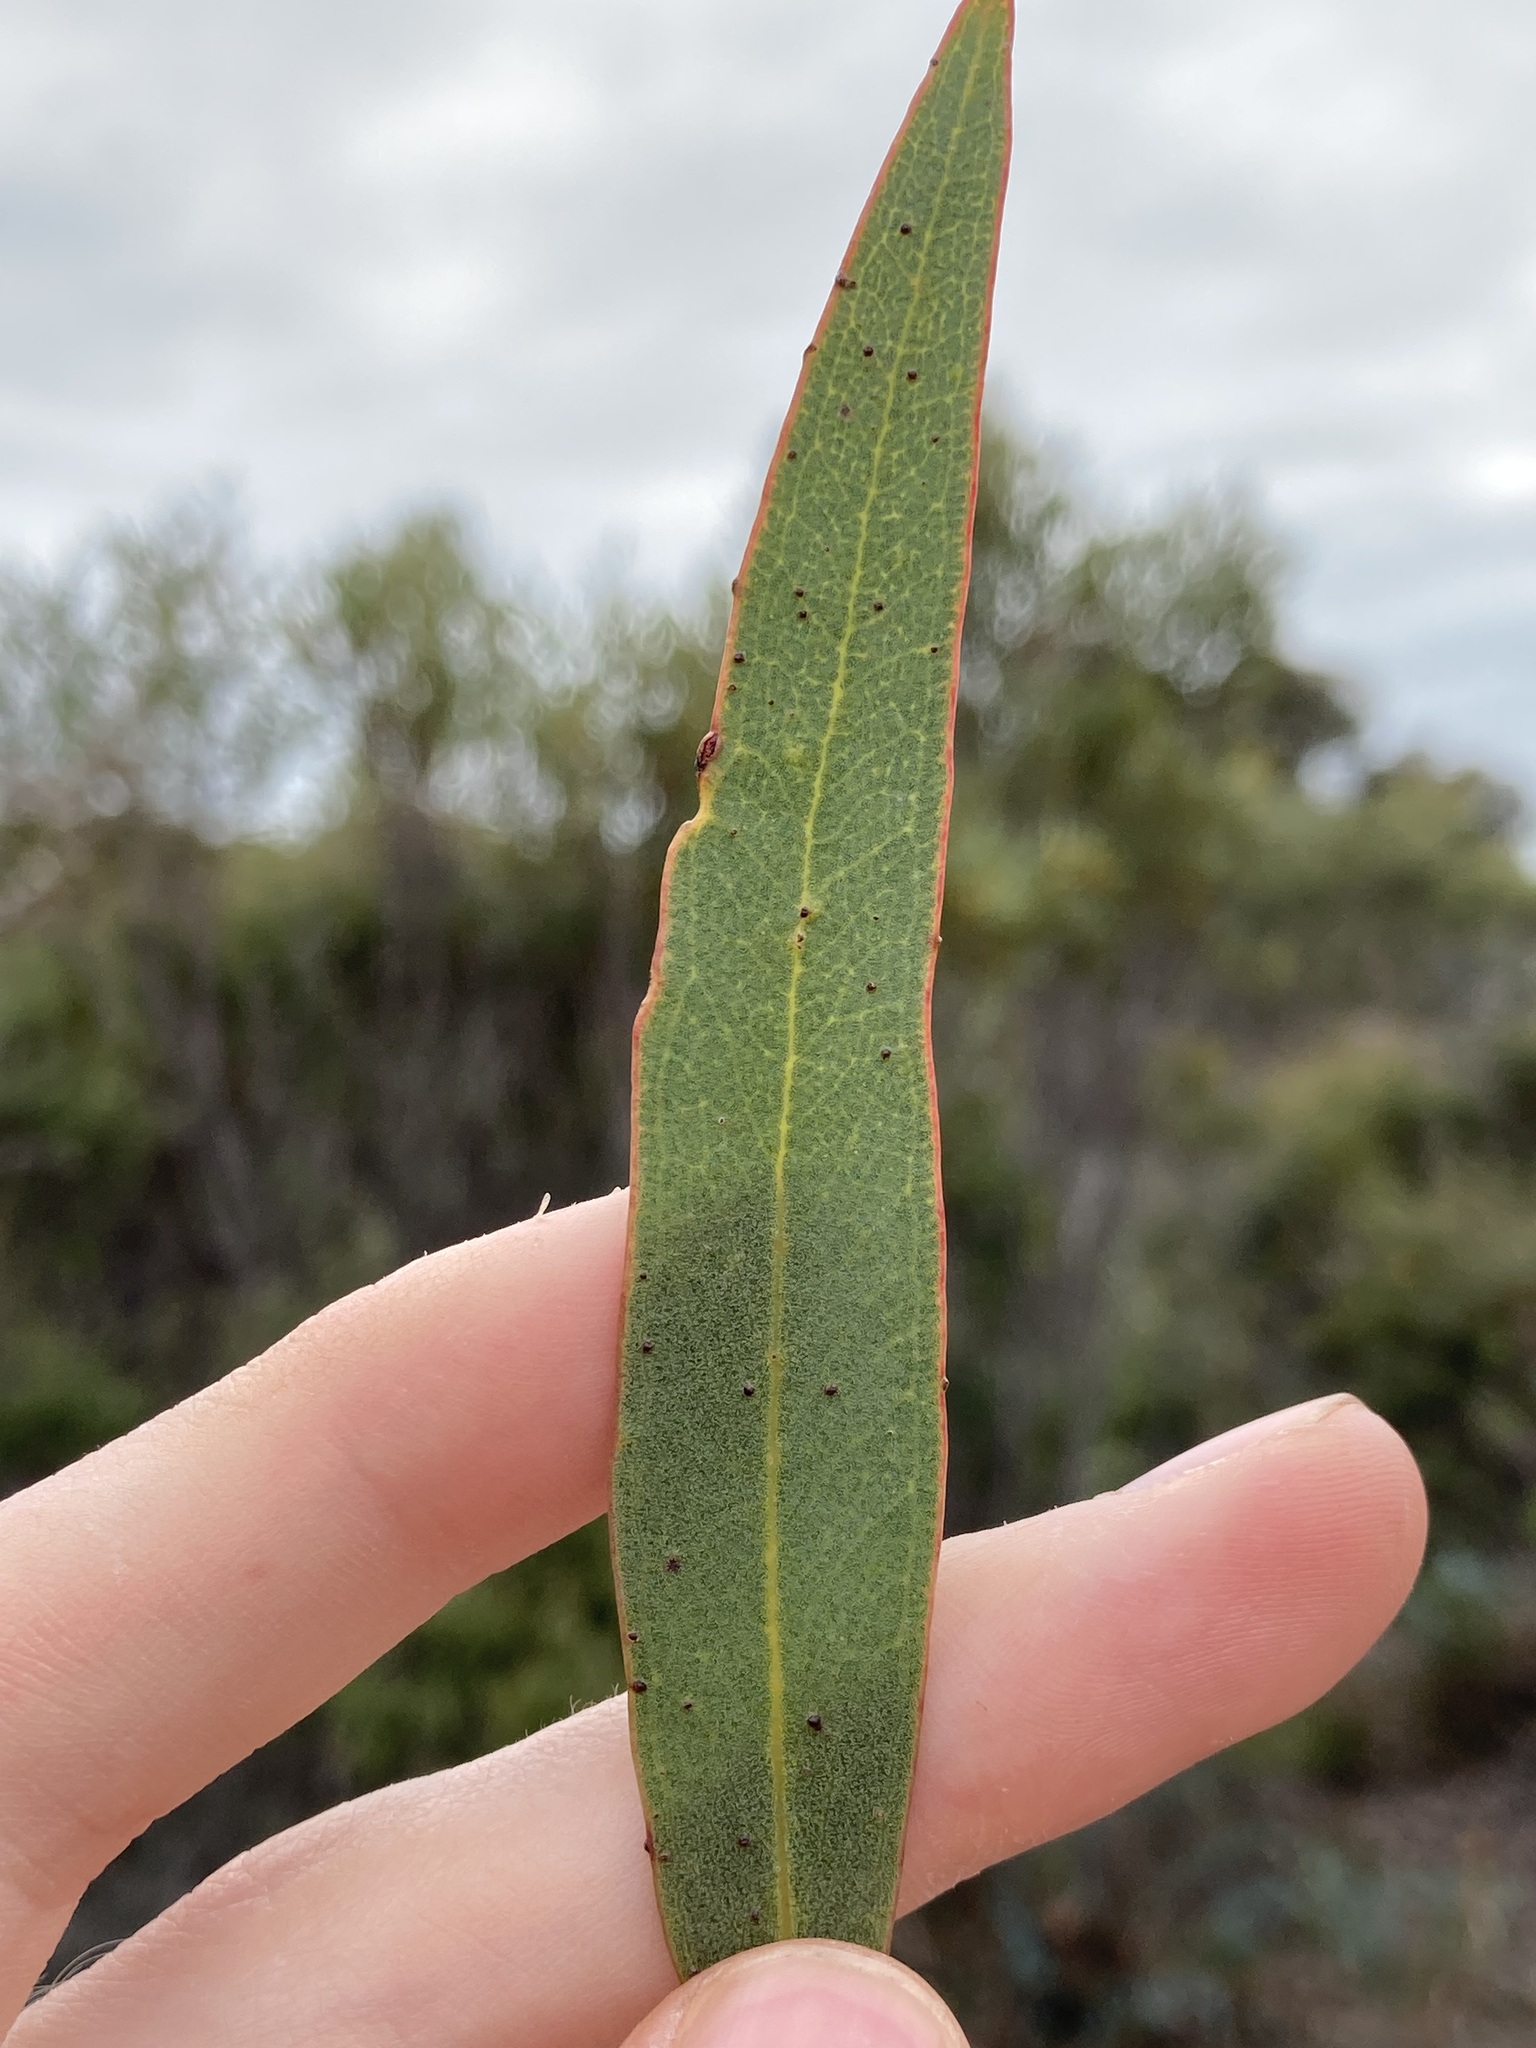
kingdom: Plantae
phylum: Tracheophyta
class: Magnoliopsida
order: Myrtales
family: Myrtaceae
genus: Eucalyptus
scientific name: Eucalyptus pachyloma
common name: Kalgan plains mallee
